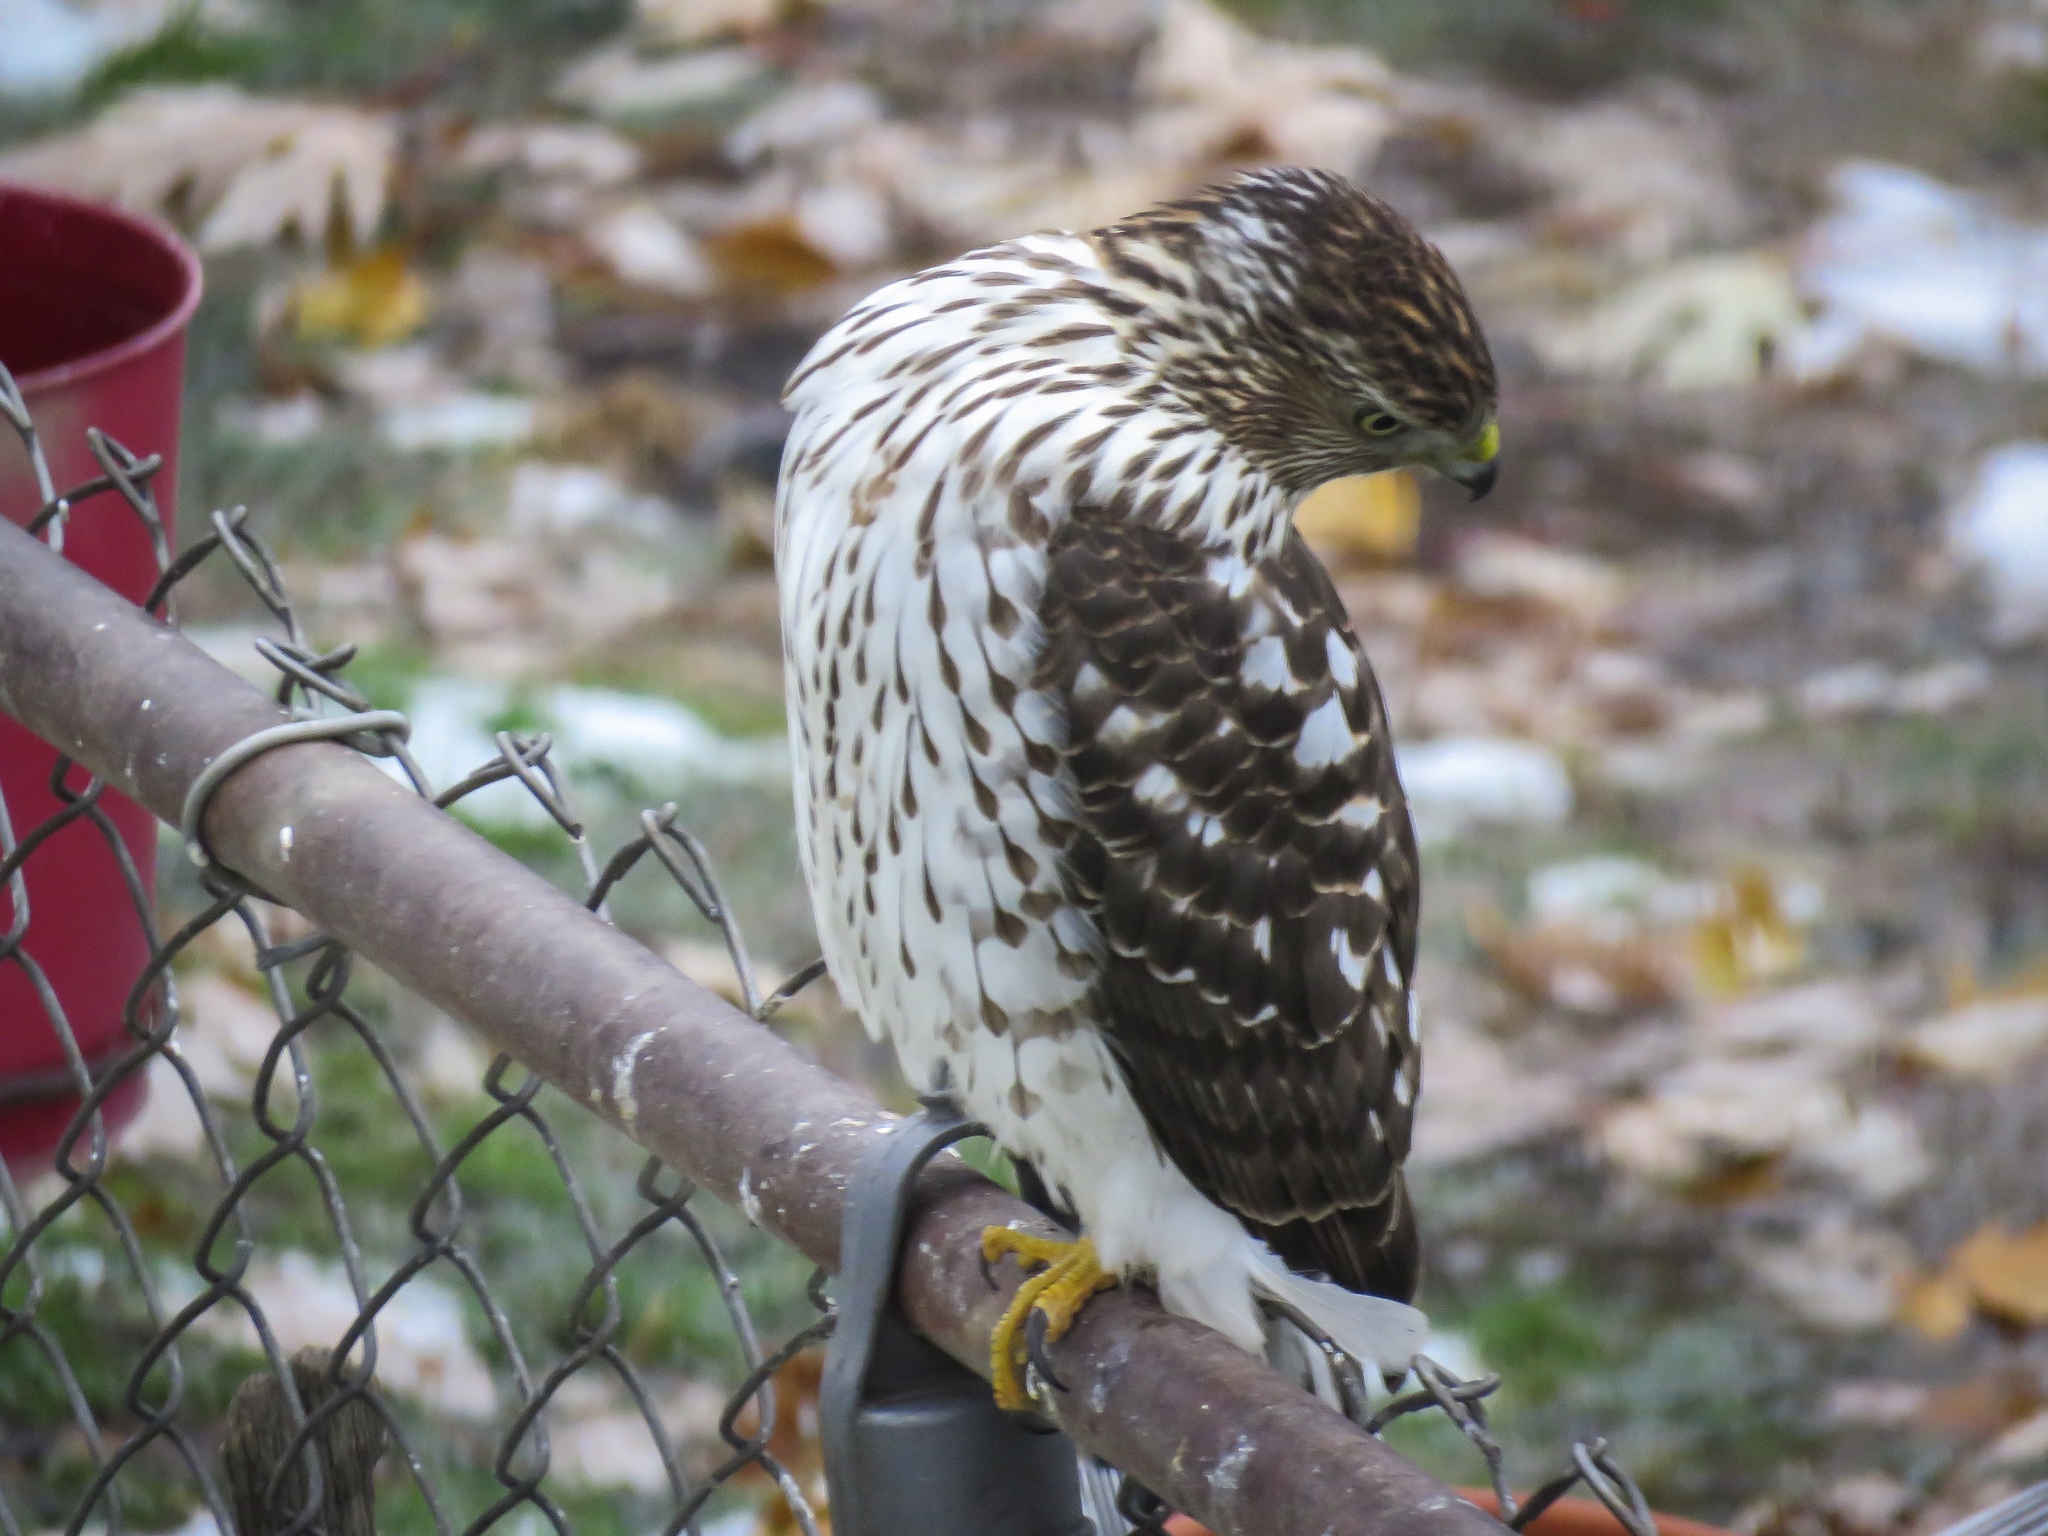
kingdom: Animalia
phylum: Chordata
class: Aves
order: Accipitriformes
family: Accipitridae
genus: Accipiter
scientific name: Accipiter cooperii
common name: Cooper's hawk
